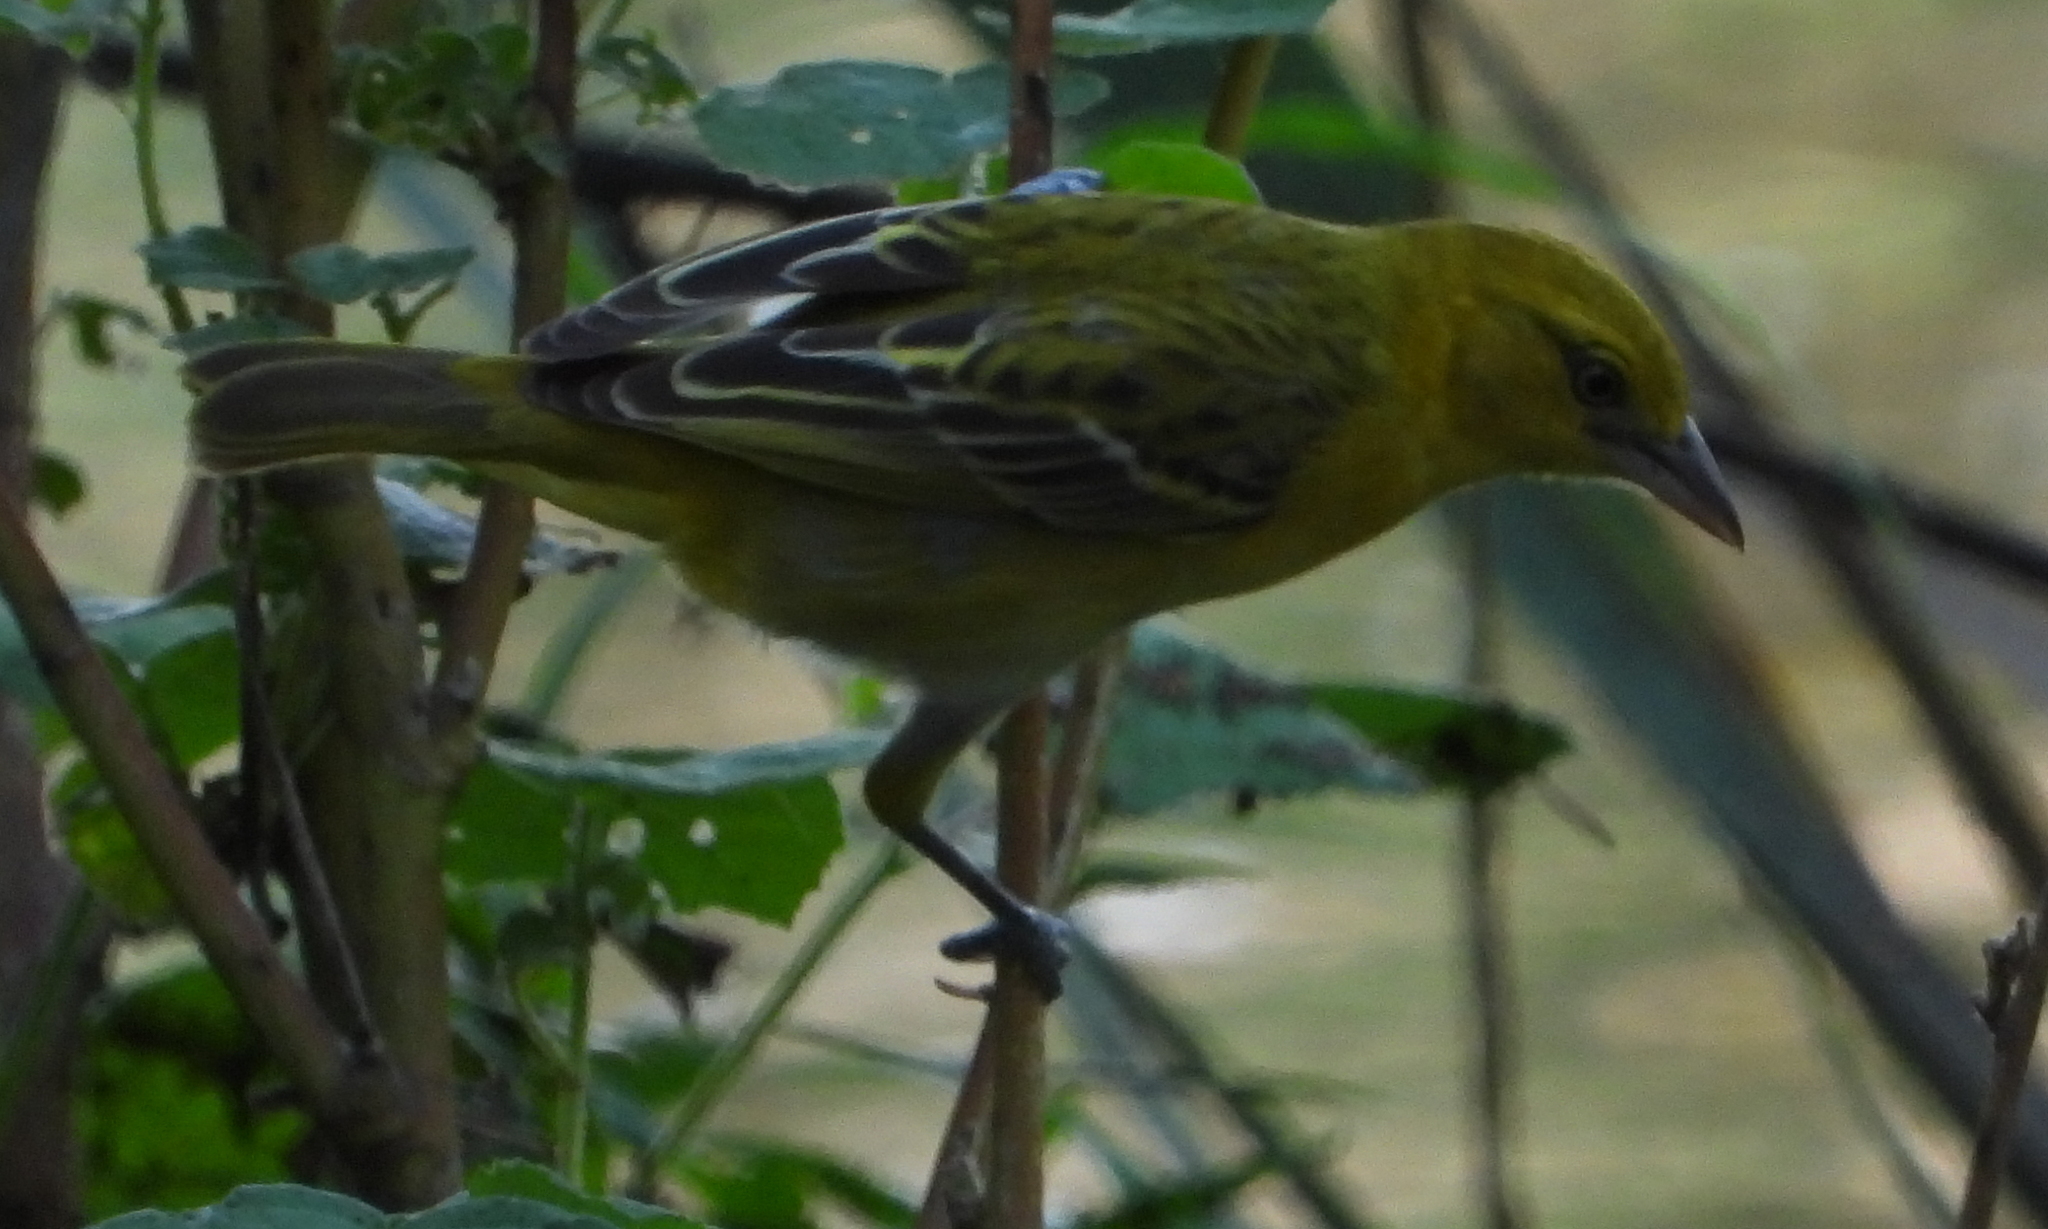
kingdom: Animalia
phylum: Chordata
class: Aves
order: Passeriformes
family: Ploceidae
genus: Ploceus
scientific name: Ploceus intermedius
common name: Lesser masked weaver
